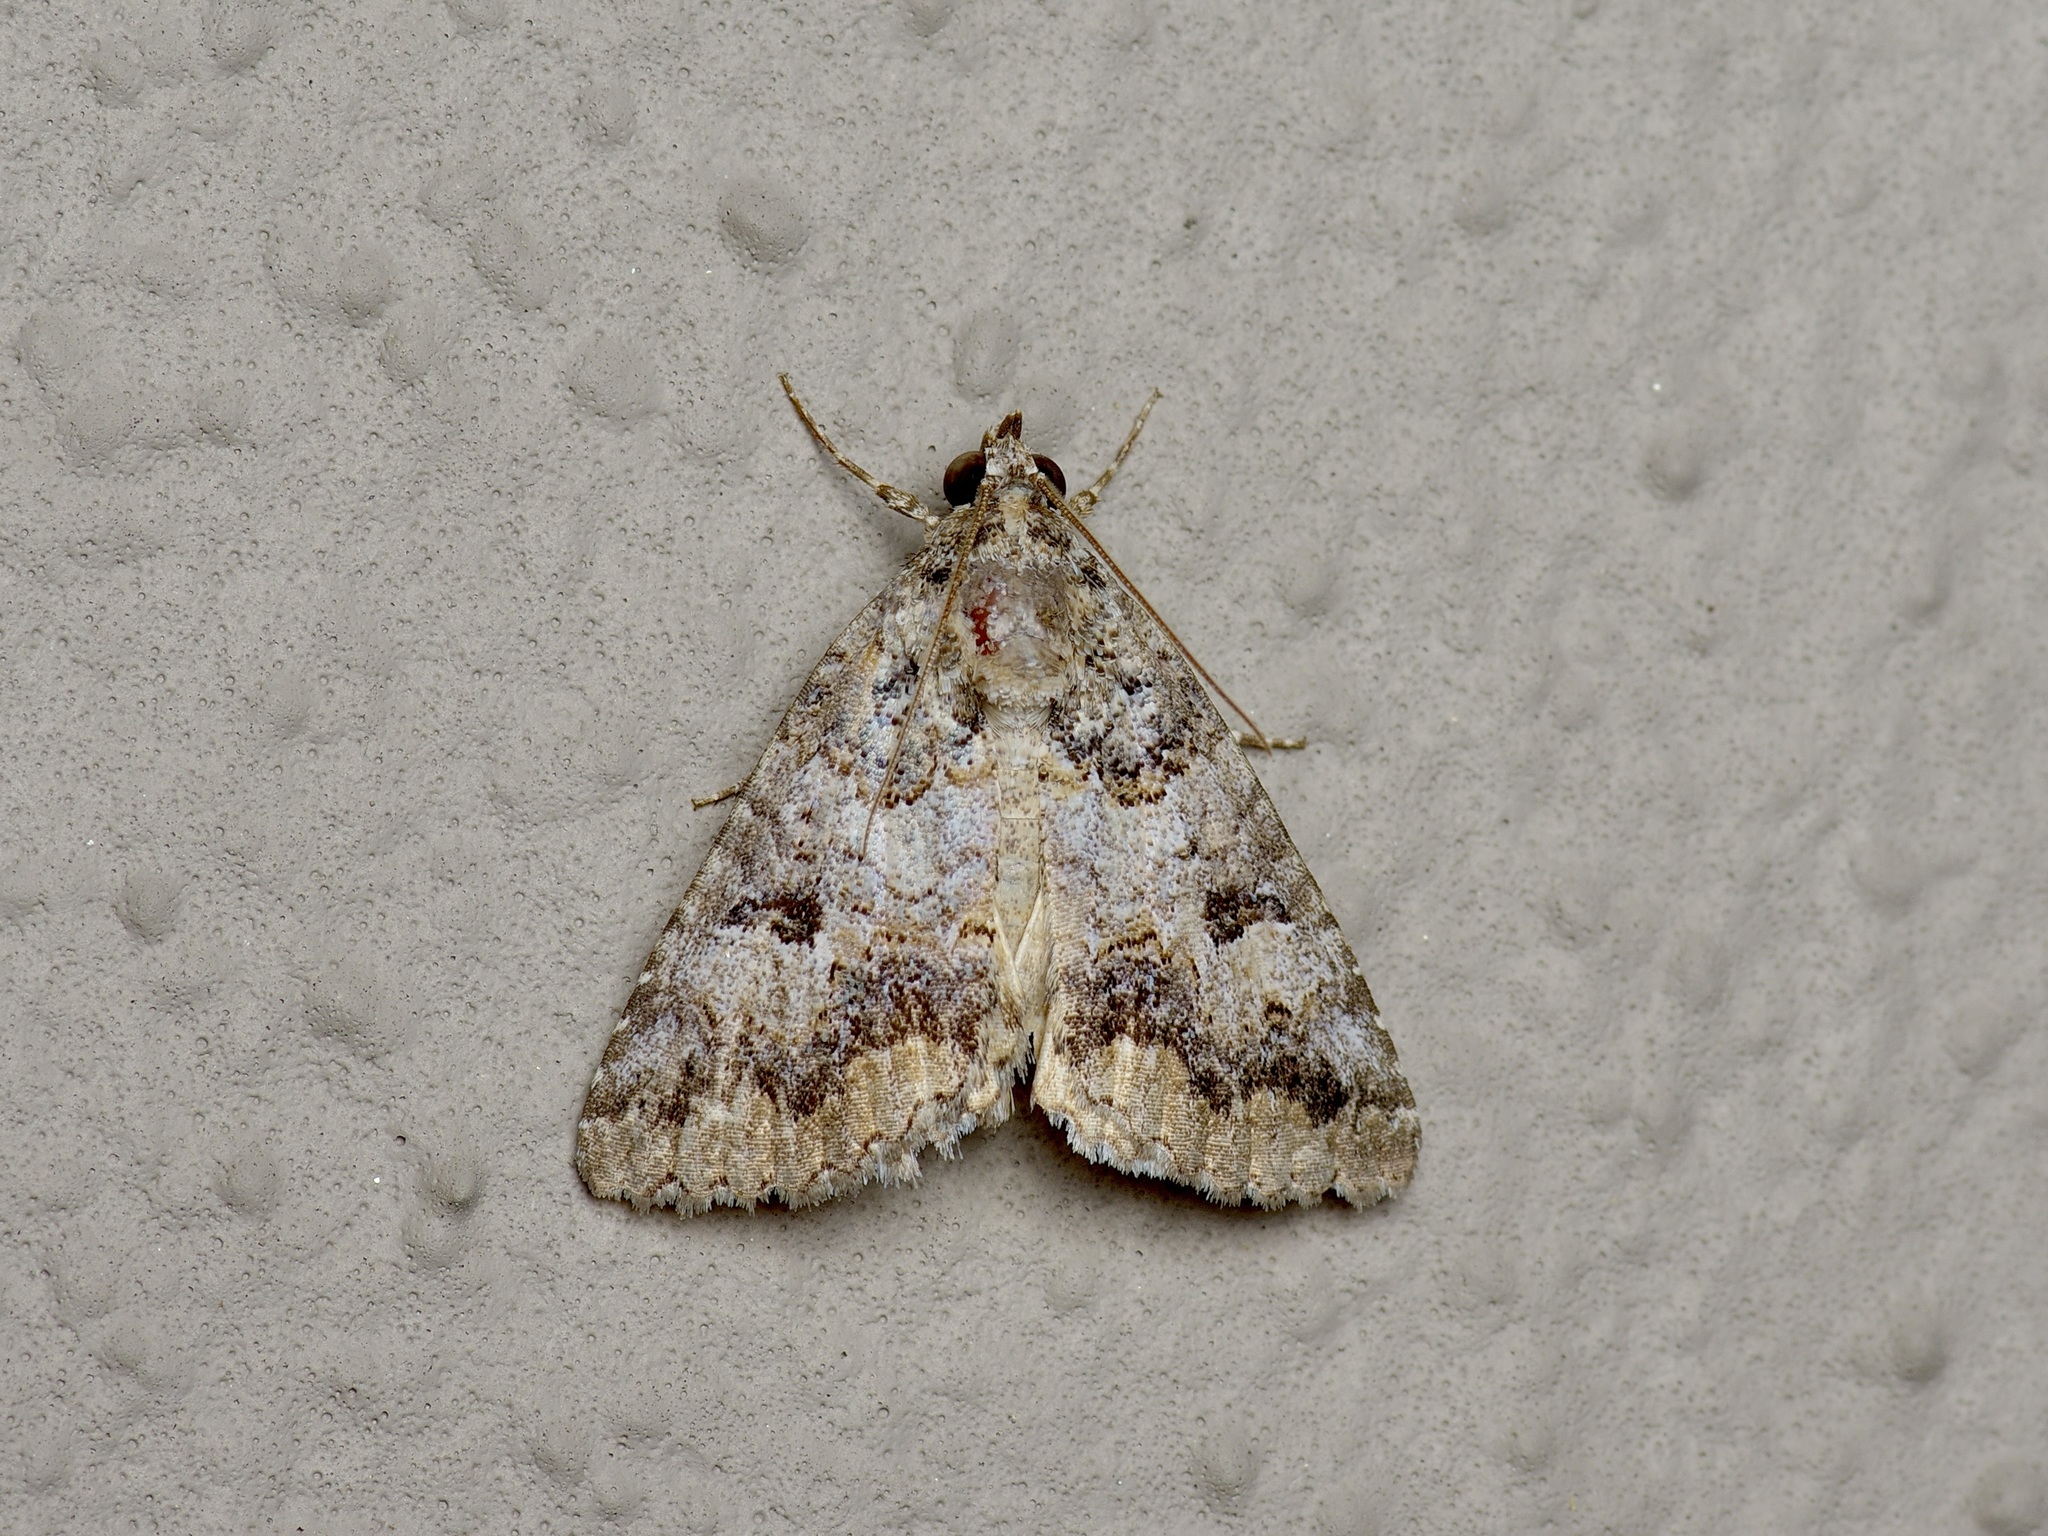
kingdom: Animalia
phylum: Arthropoda
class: Insecta
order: Lepidoptera
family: Erebidae
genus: Eubolina
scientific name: Eubolina impartialis
